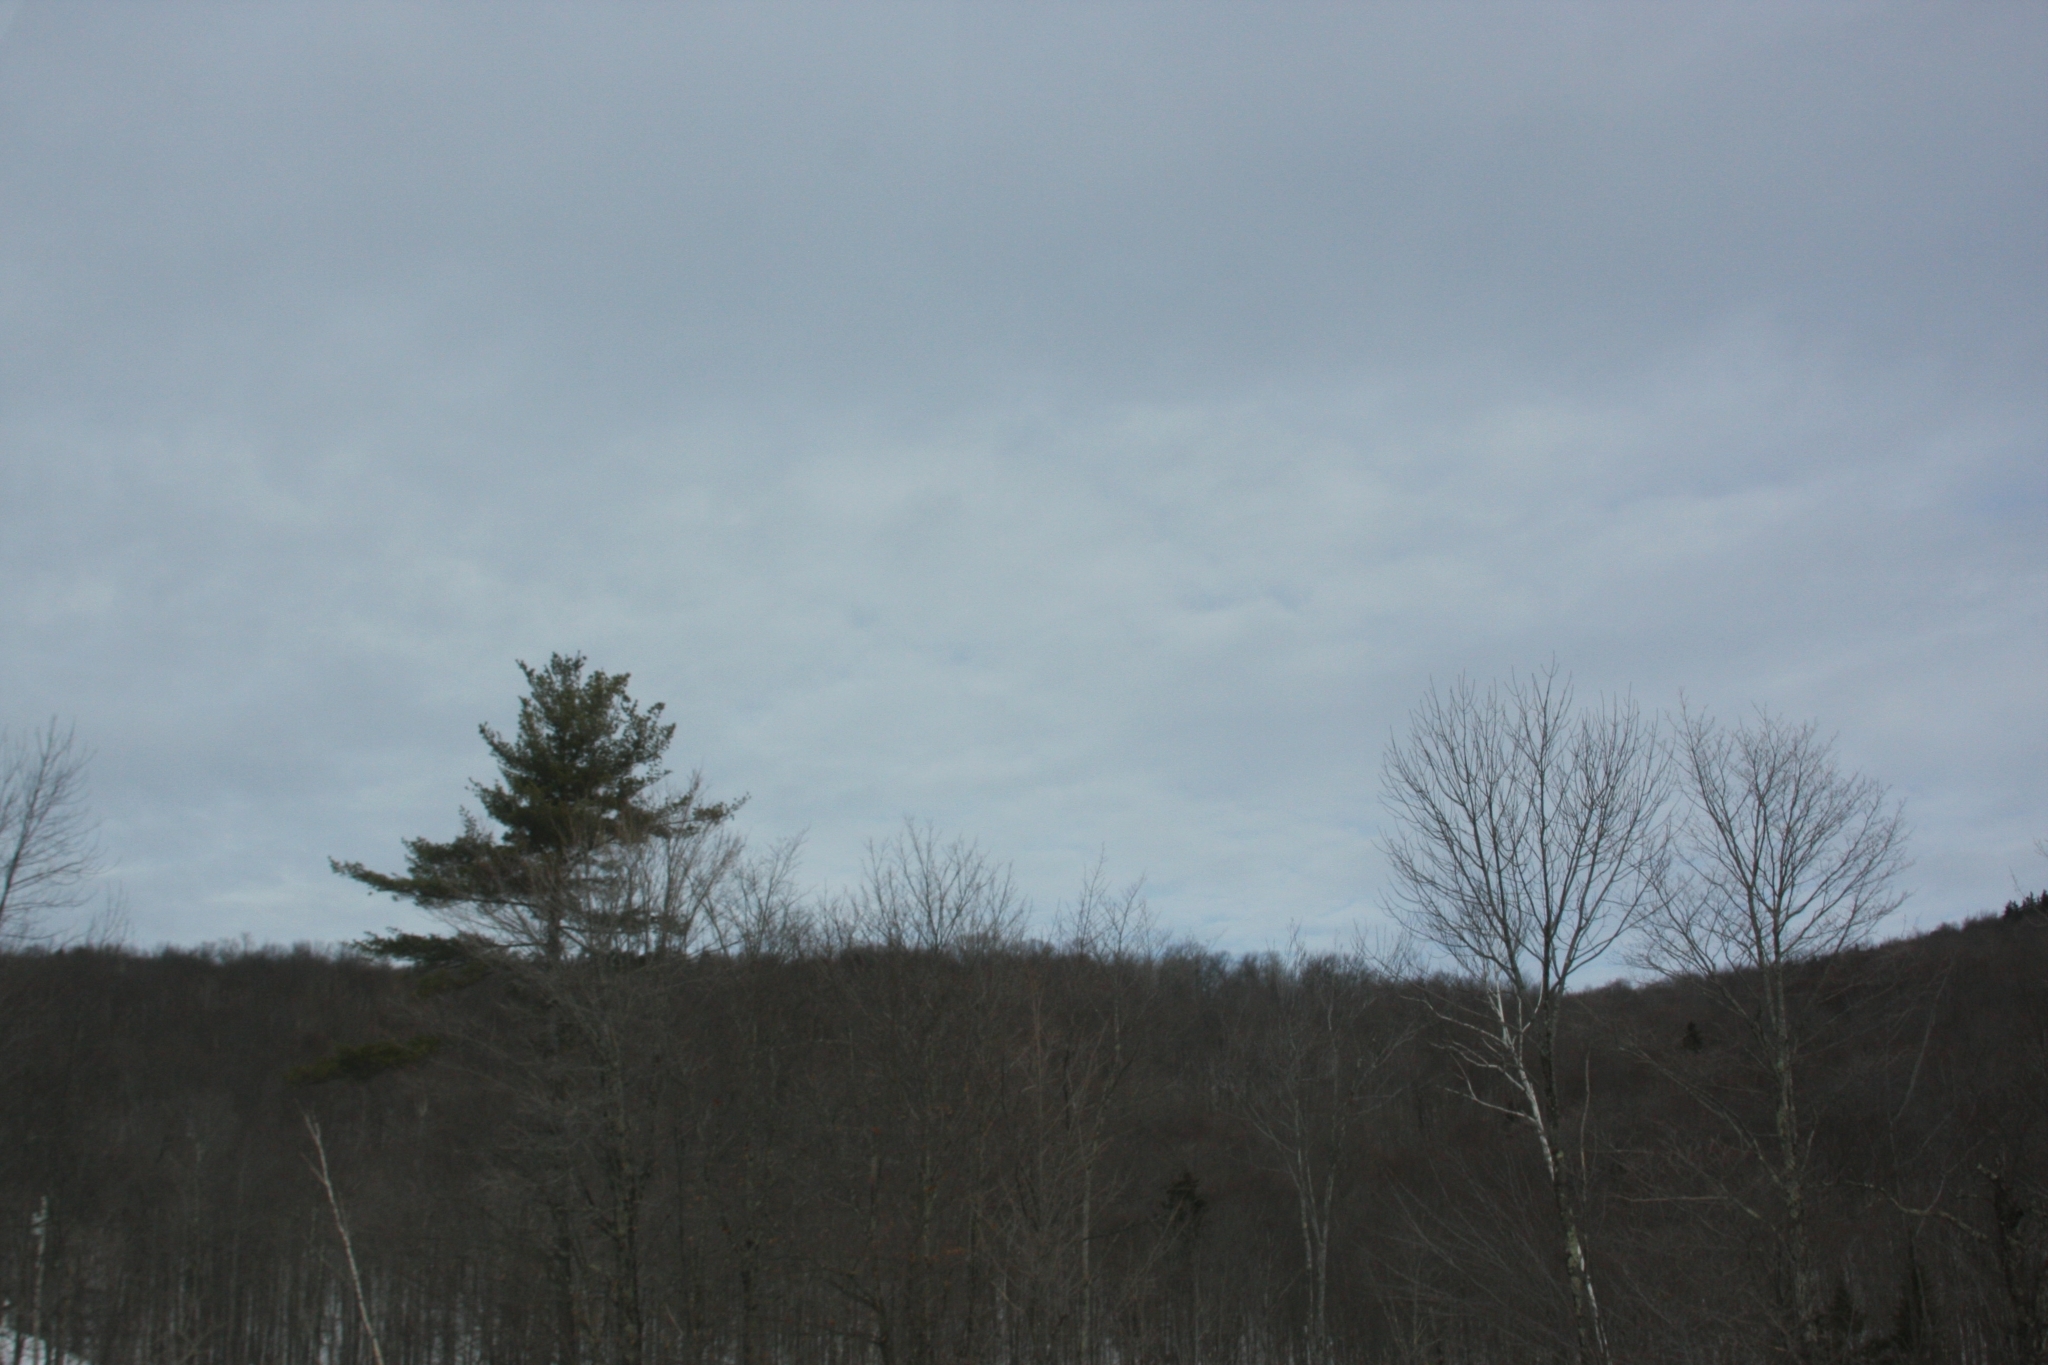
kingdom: Plantae
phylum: Tracheophyta
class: Pinopsida
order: Pinales
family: Pinaceae
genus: Pinus
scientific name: Pinus strobus
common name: Weymouth pine
